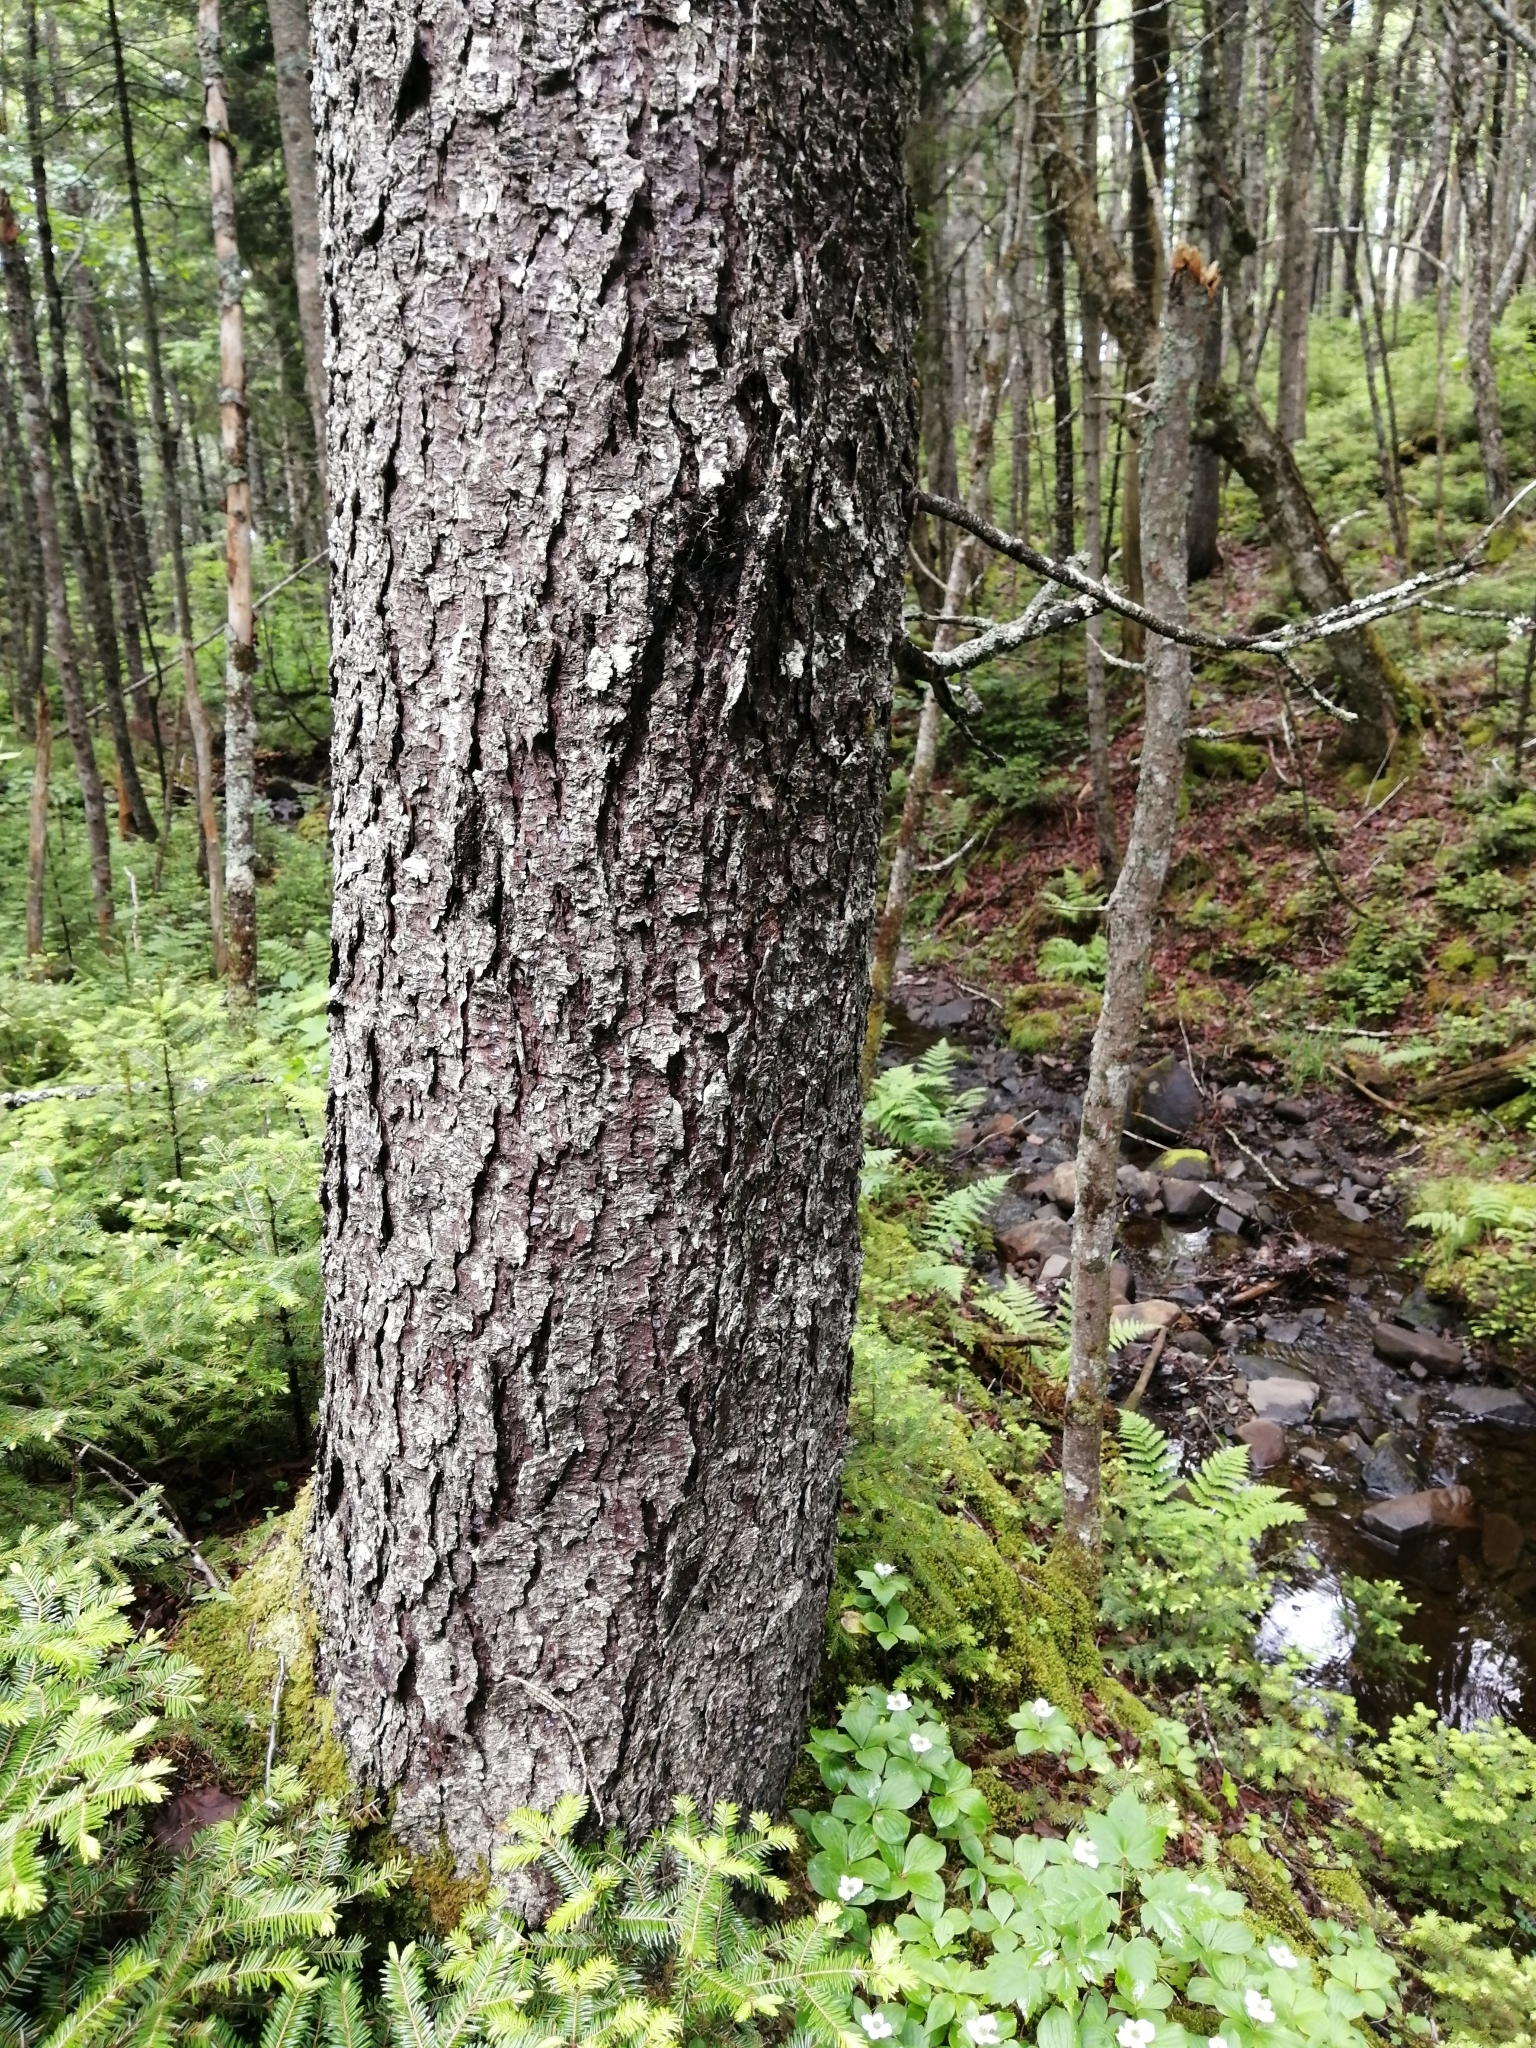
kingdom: Plantae
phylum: Tracheophyta
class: Pinopsida
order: Pinales
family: Pinaceae
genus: Picea
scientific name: Picea rubens
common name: Red spruce
